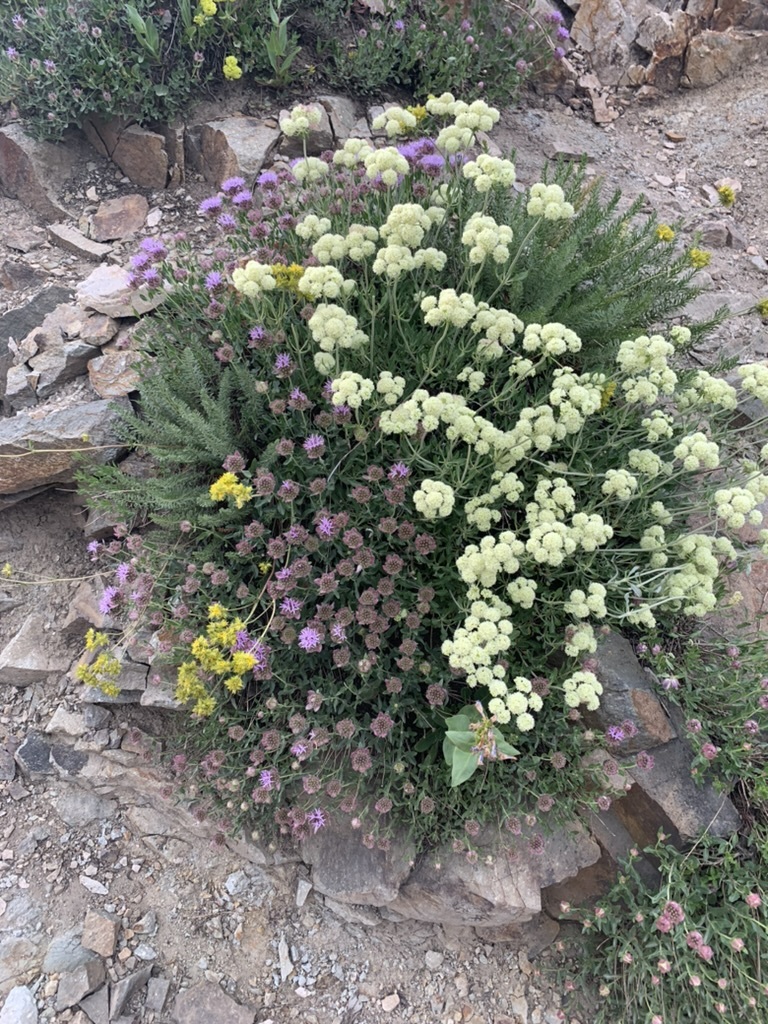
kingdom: Plantae
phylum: Tracheophyta
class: Magnoliopsida
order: Lamiales
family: Lamiaceae
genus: Monardella
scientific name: Monardella odoratissima
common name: Pacific monardella
